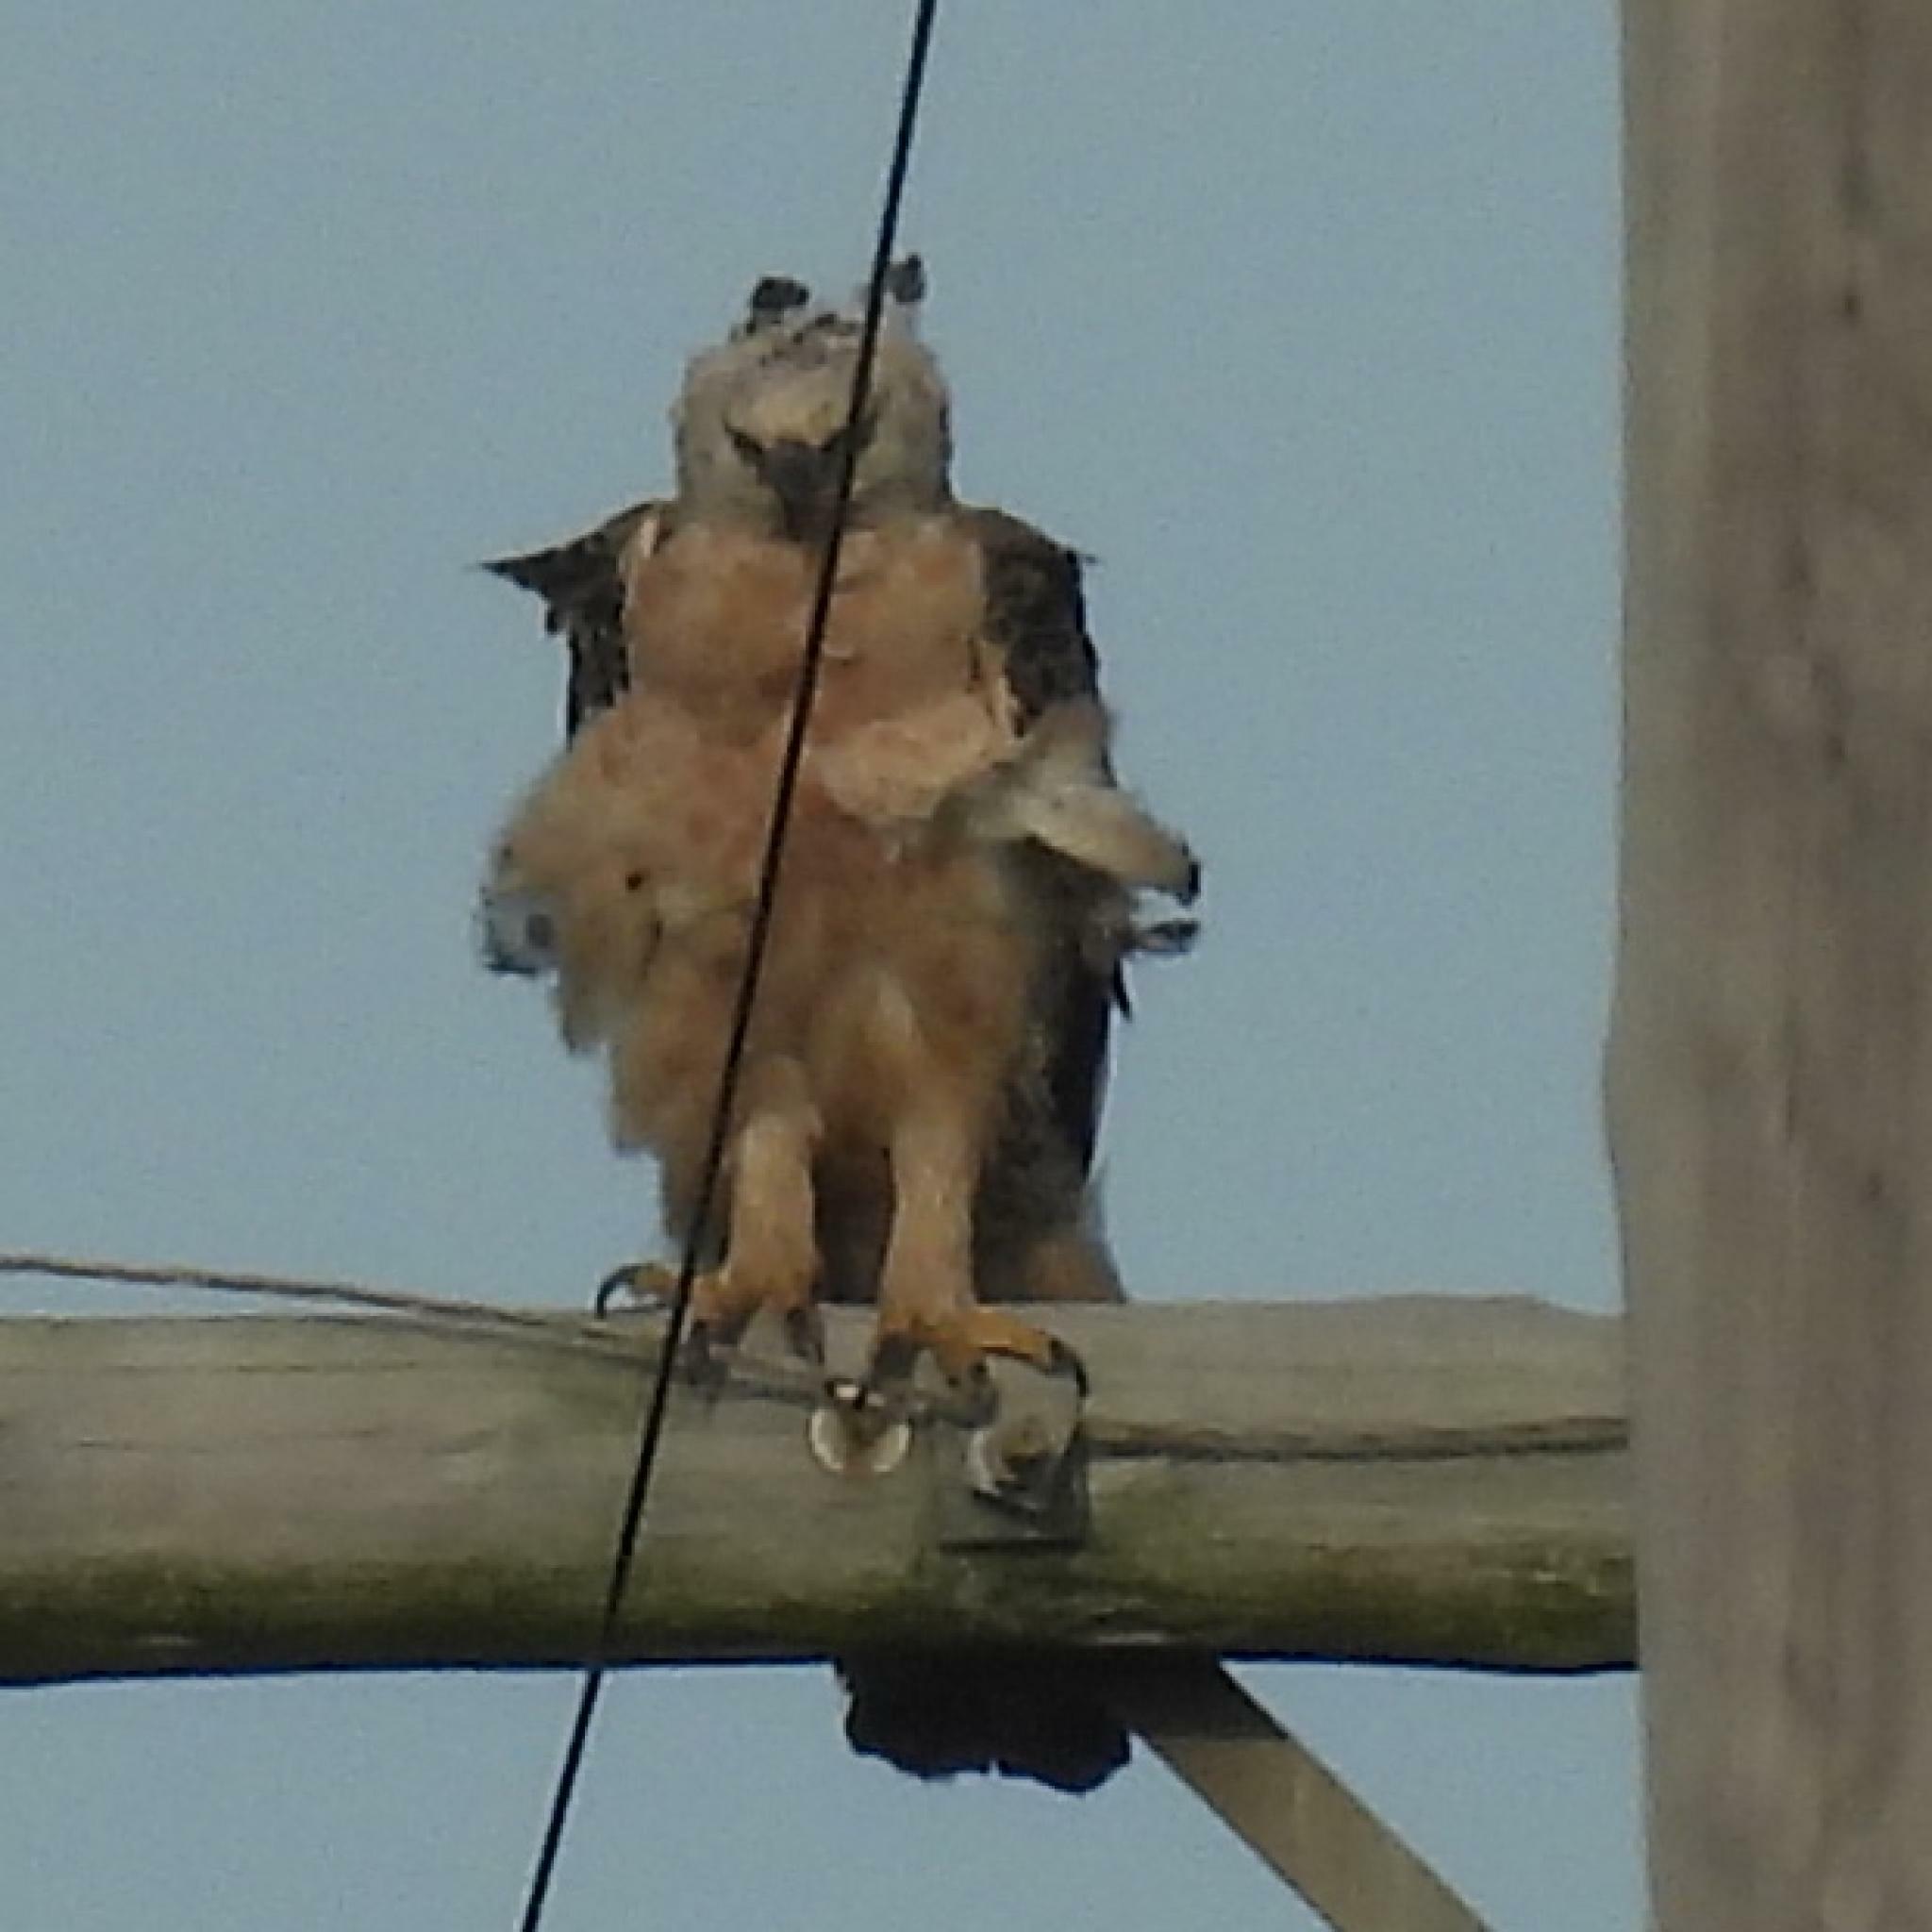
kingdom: Animalia
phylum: Chordata
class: Aves
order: Accipitriformes
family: Accipitridae
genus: Stephanoaetus
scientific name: Stephanoaetus coronatus
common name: Crowned eagle
